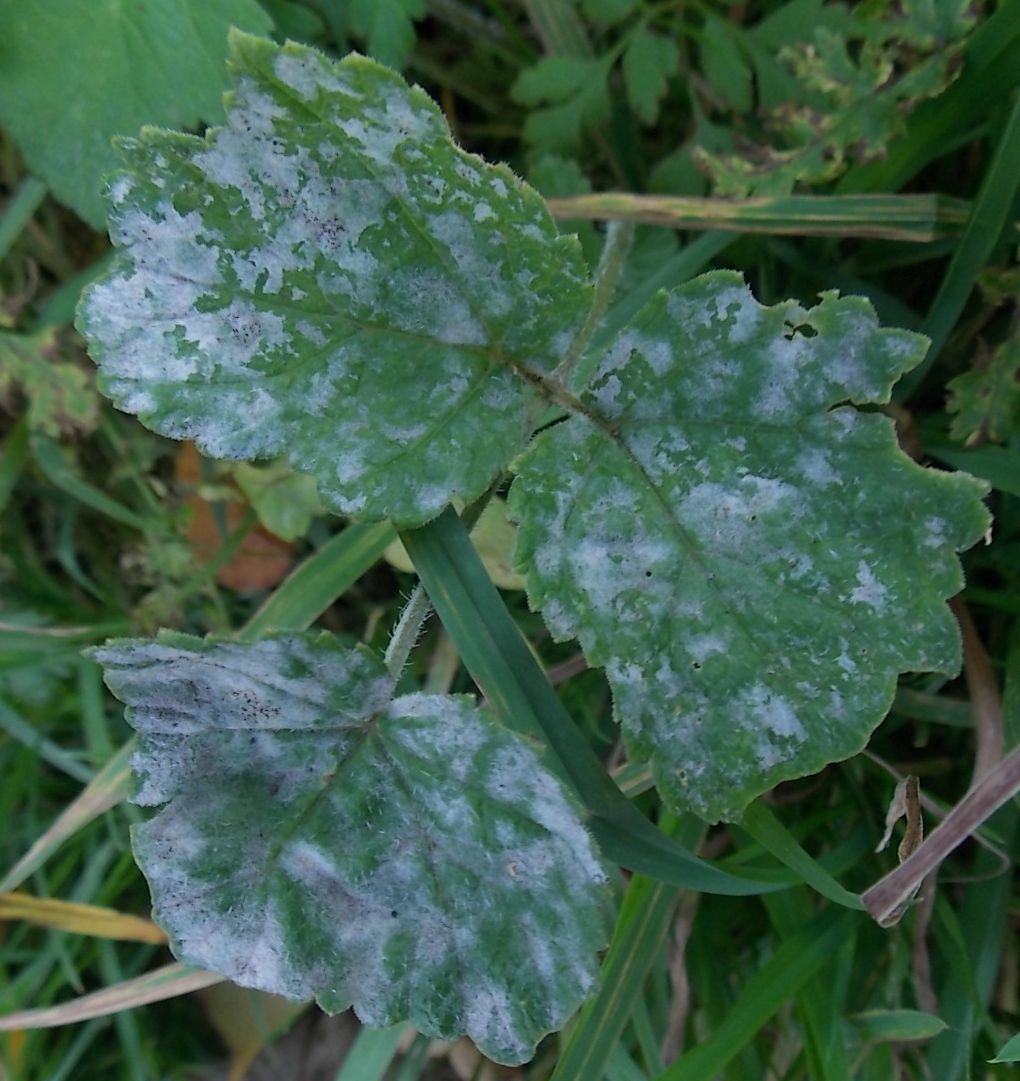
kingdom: Fungi
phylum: Ascomycota
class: Leotiomycetes
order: Helotiales
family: Erysiphaceae
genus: Erysiphe
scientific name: Erysiphe heraclei
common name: Umbellifer mildew
